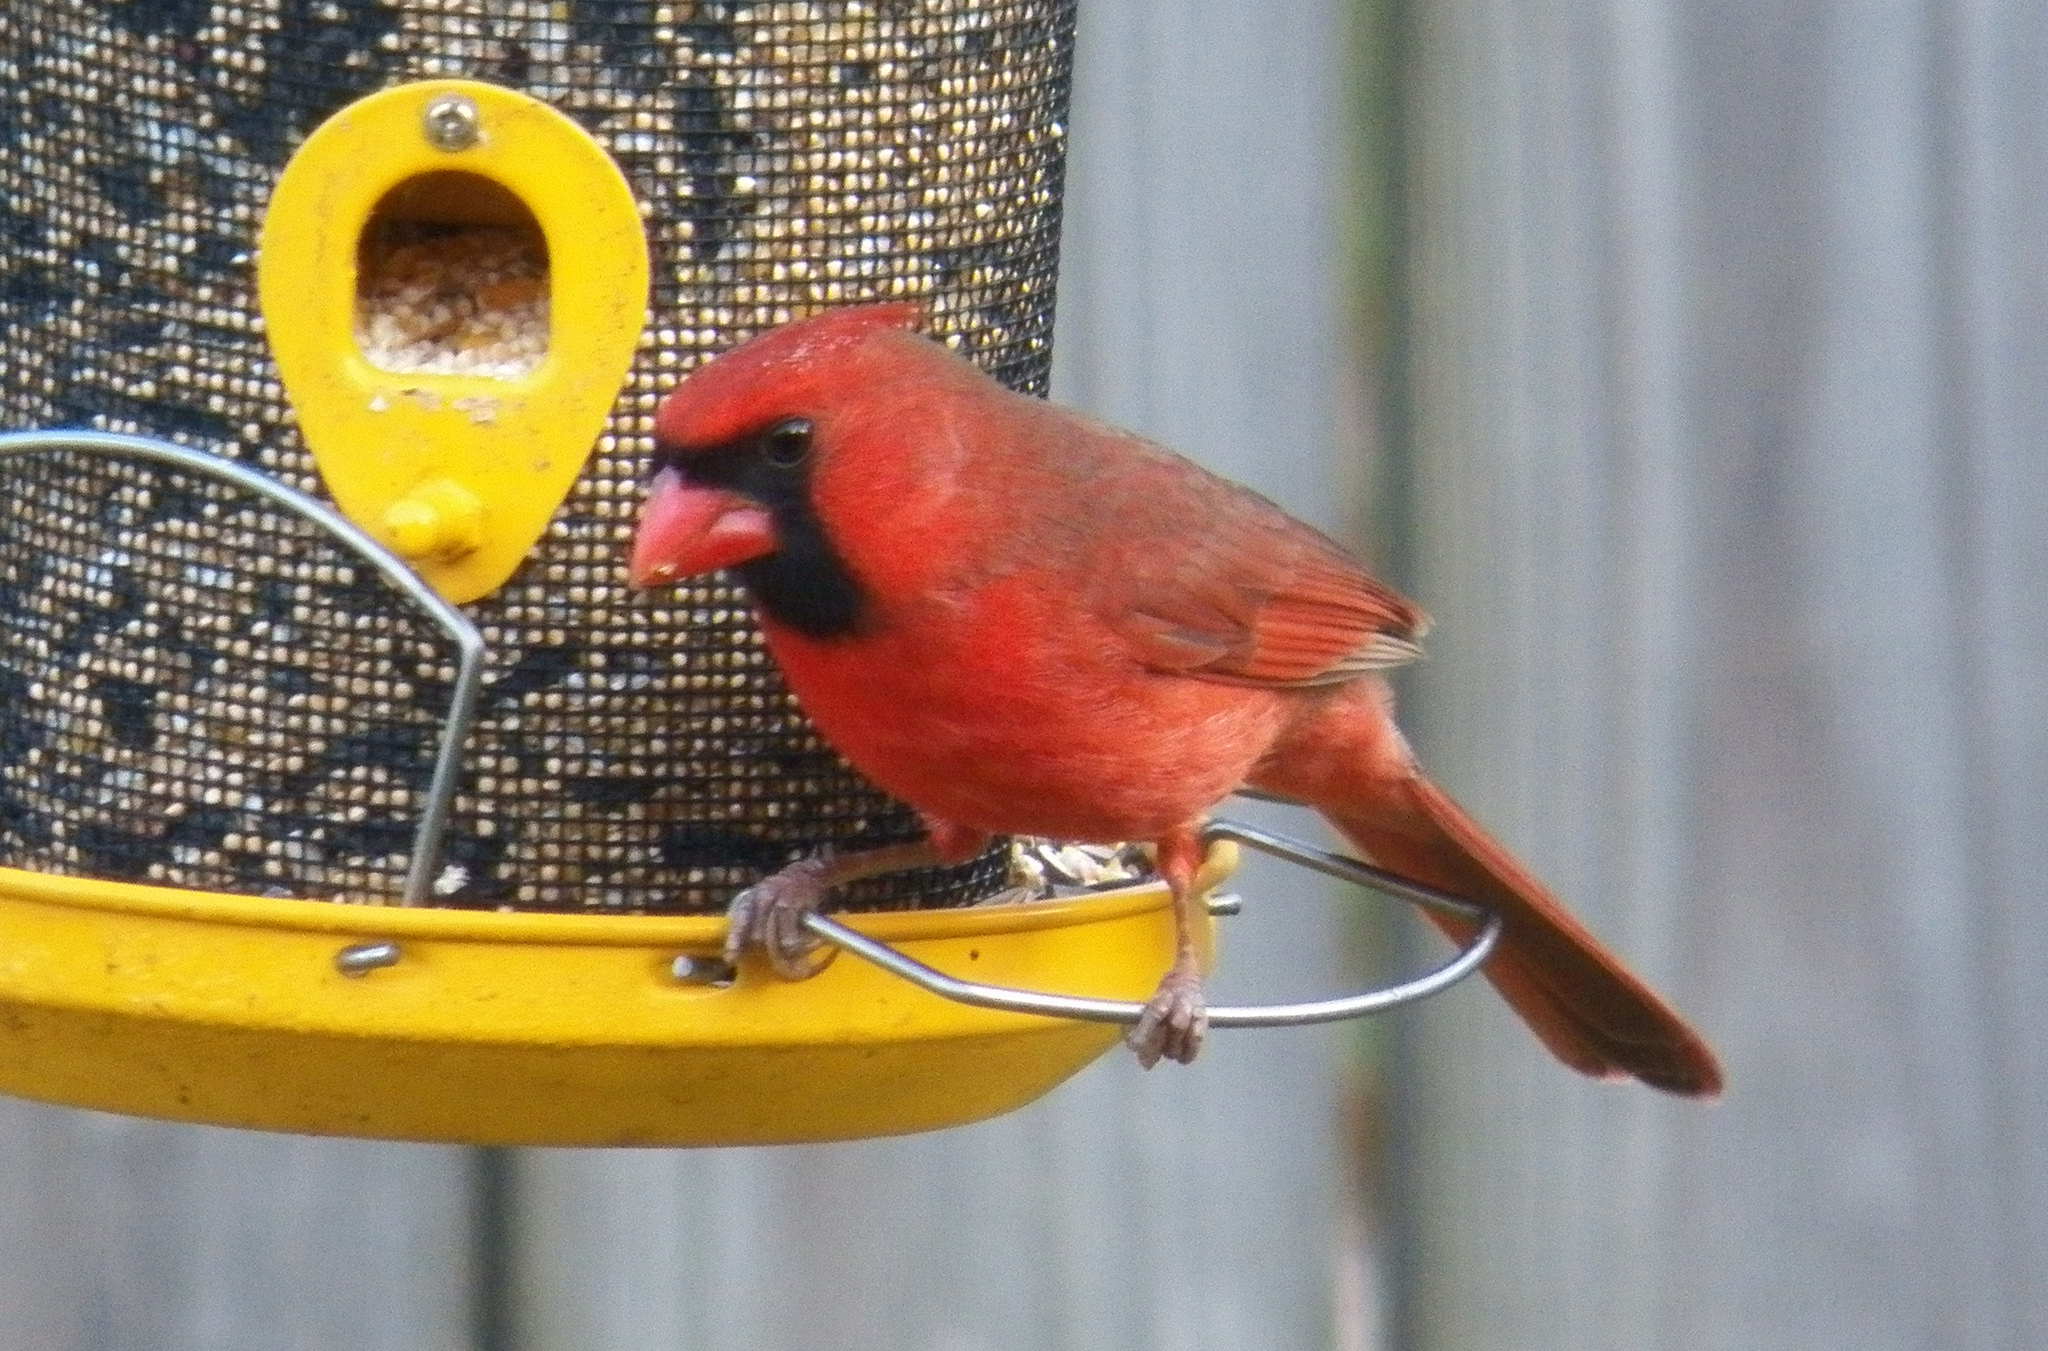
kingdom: Animalia
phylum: Chordata
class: Aves
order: Passeriformes
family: Cardinalidae
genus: Cardinalis
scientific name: Cardinalis cardinalis
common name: Northern cardinal
